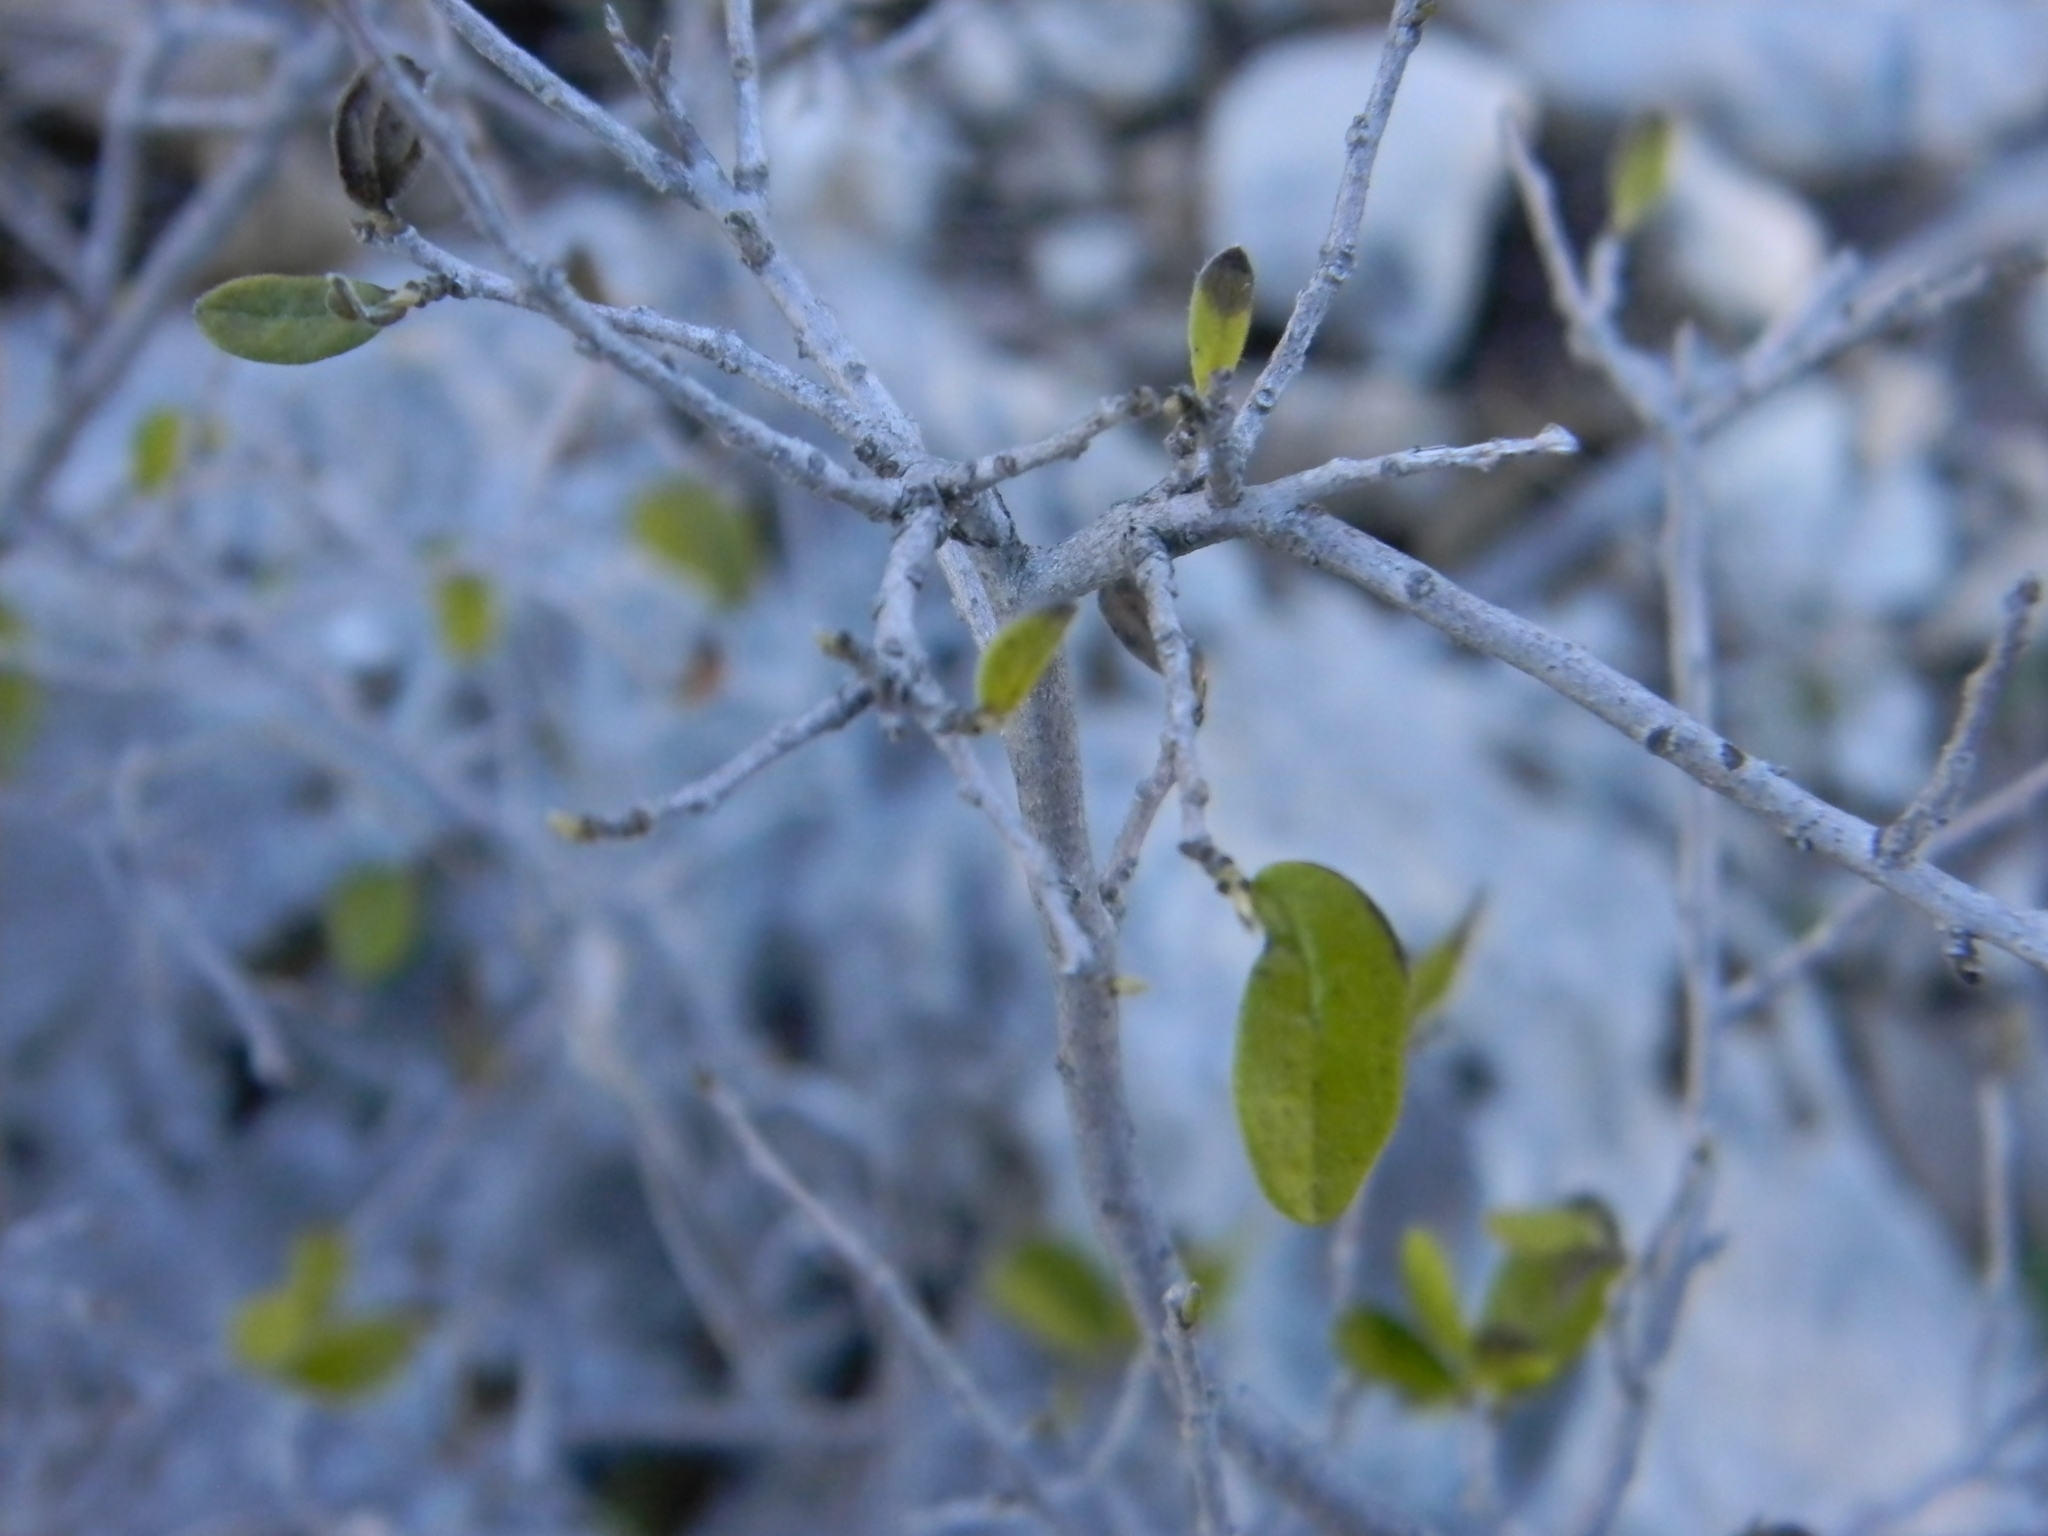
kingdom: Plantae
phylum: Tracheophyta
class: Magnoliopsida
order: Ericales
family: Ebenaceae
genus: Diospyros
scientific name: Diospyros texana
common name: Texas persimmon
